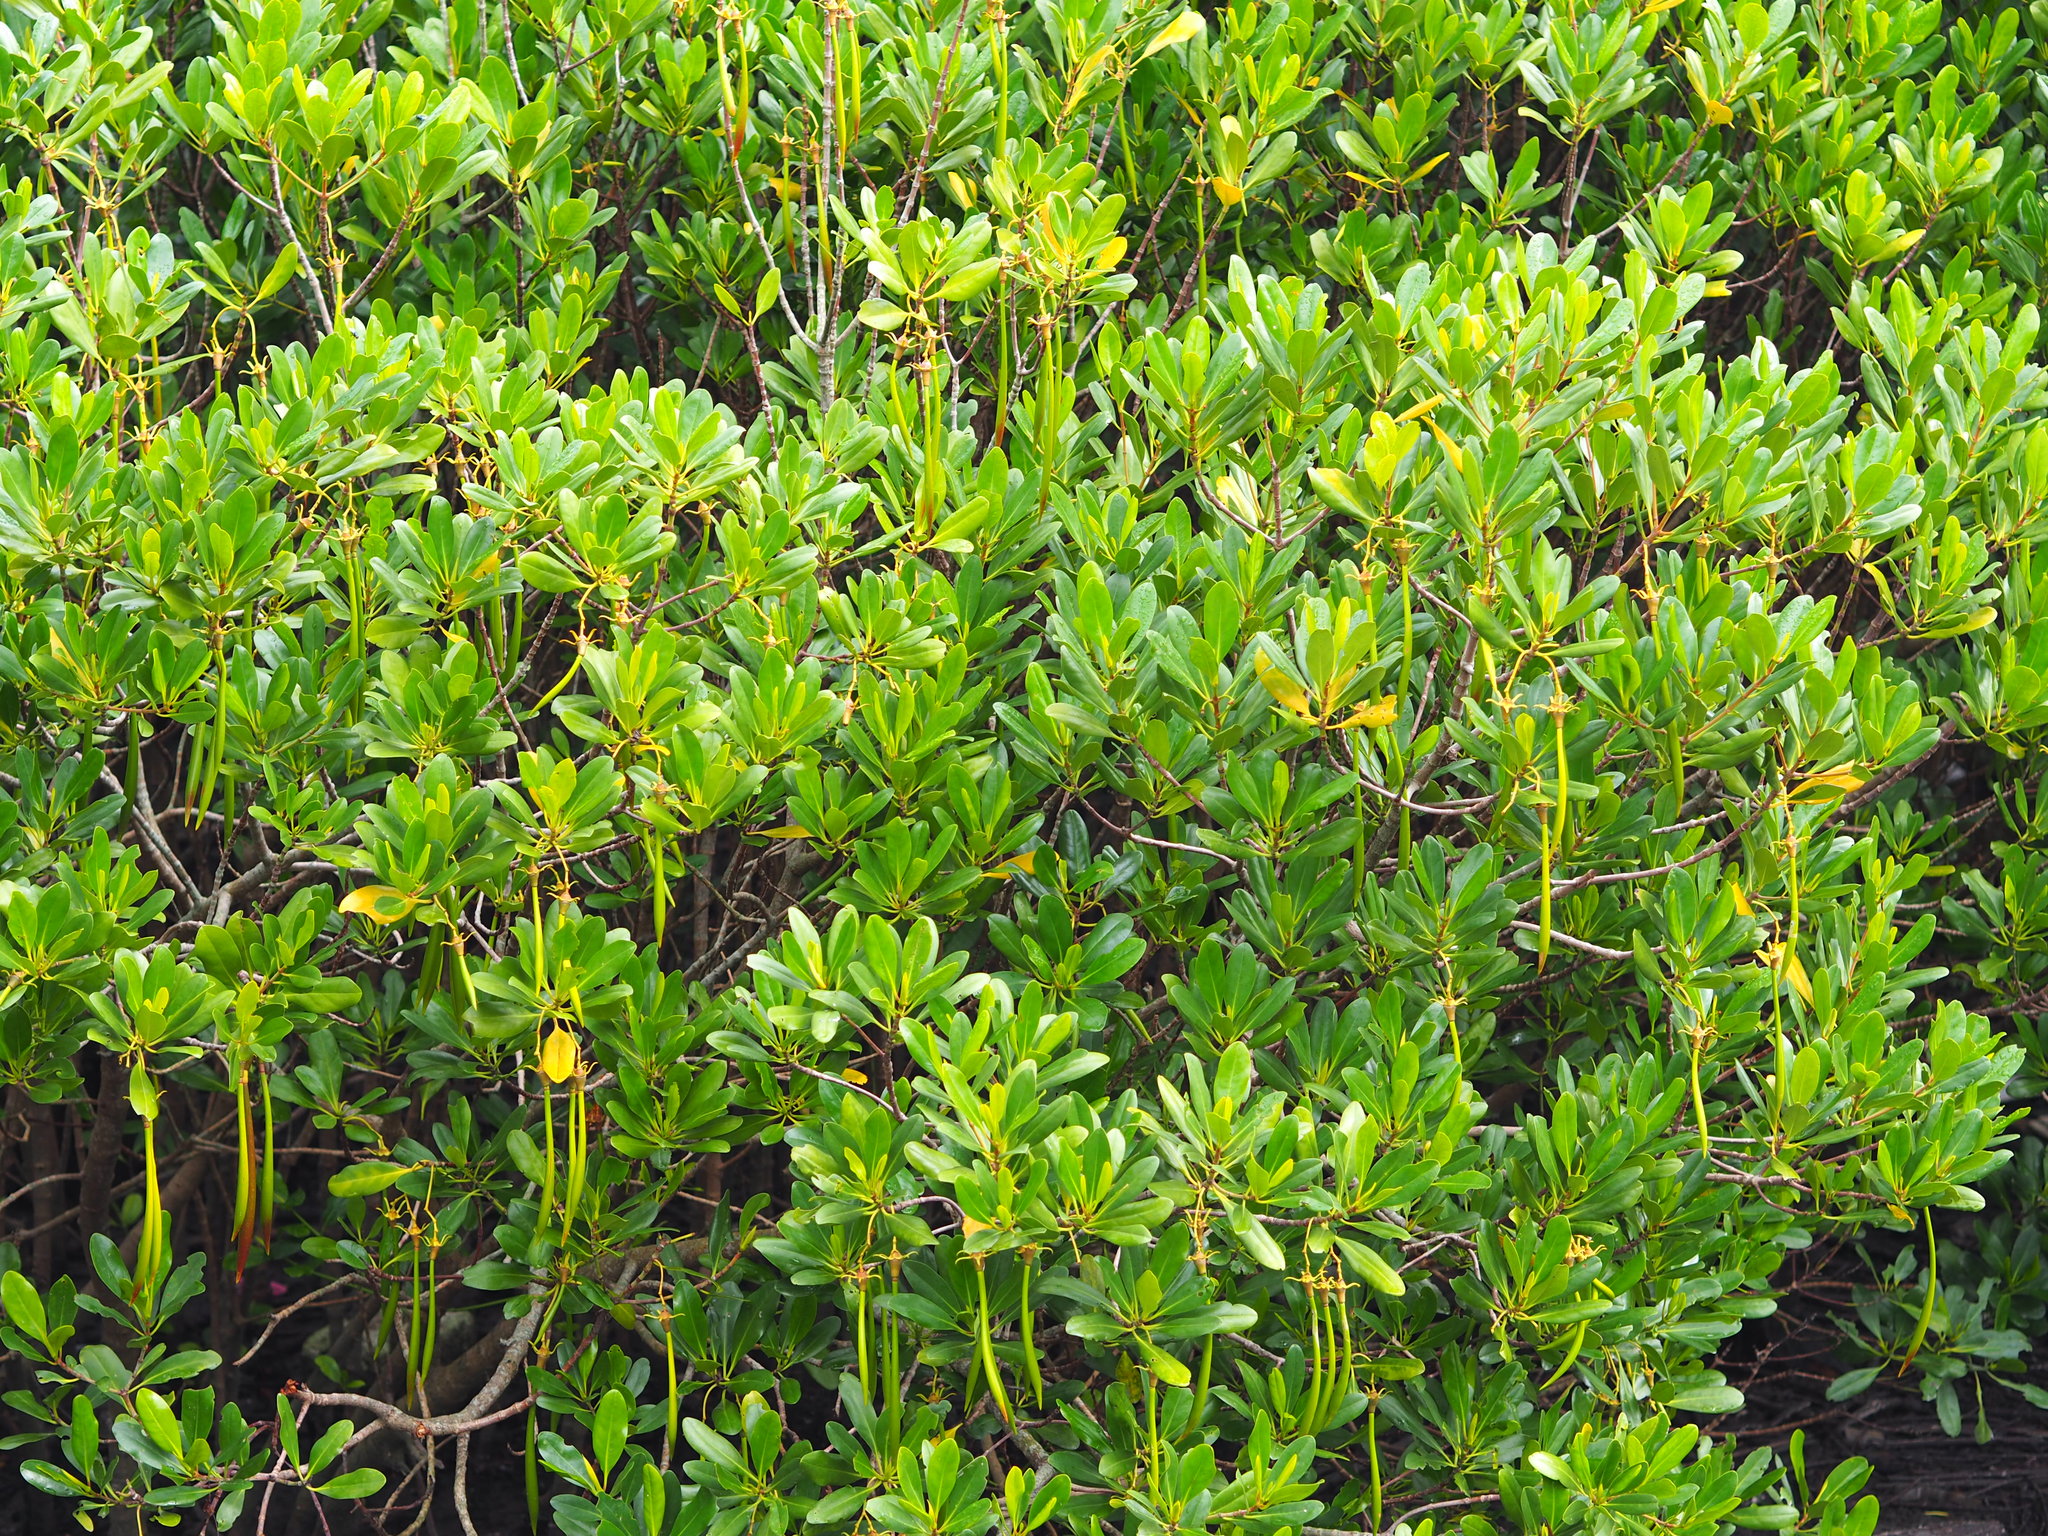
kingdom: Plantae
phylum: Tracheophyta
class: Magnoliopsida
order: Malpighiales
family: Rhizophoraceae
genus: Kandelia
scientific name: Kandelia obovata
